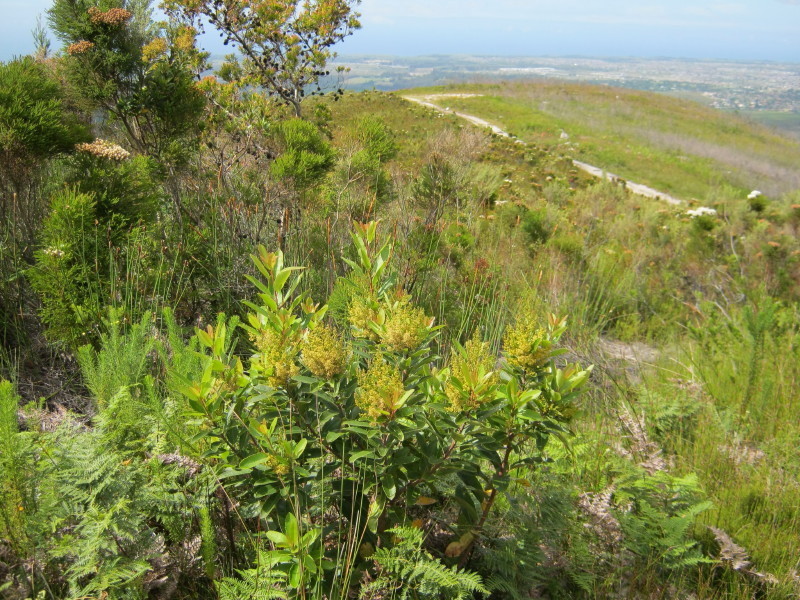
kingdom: Plantae
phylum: Tracheophyta
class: Magnoliopsida
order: Sapindales
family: Anacardiaceae
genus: Laurophyllus
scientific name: Laurophyllus capensis
